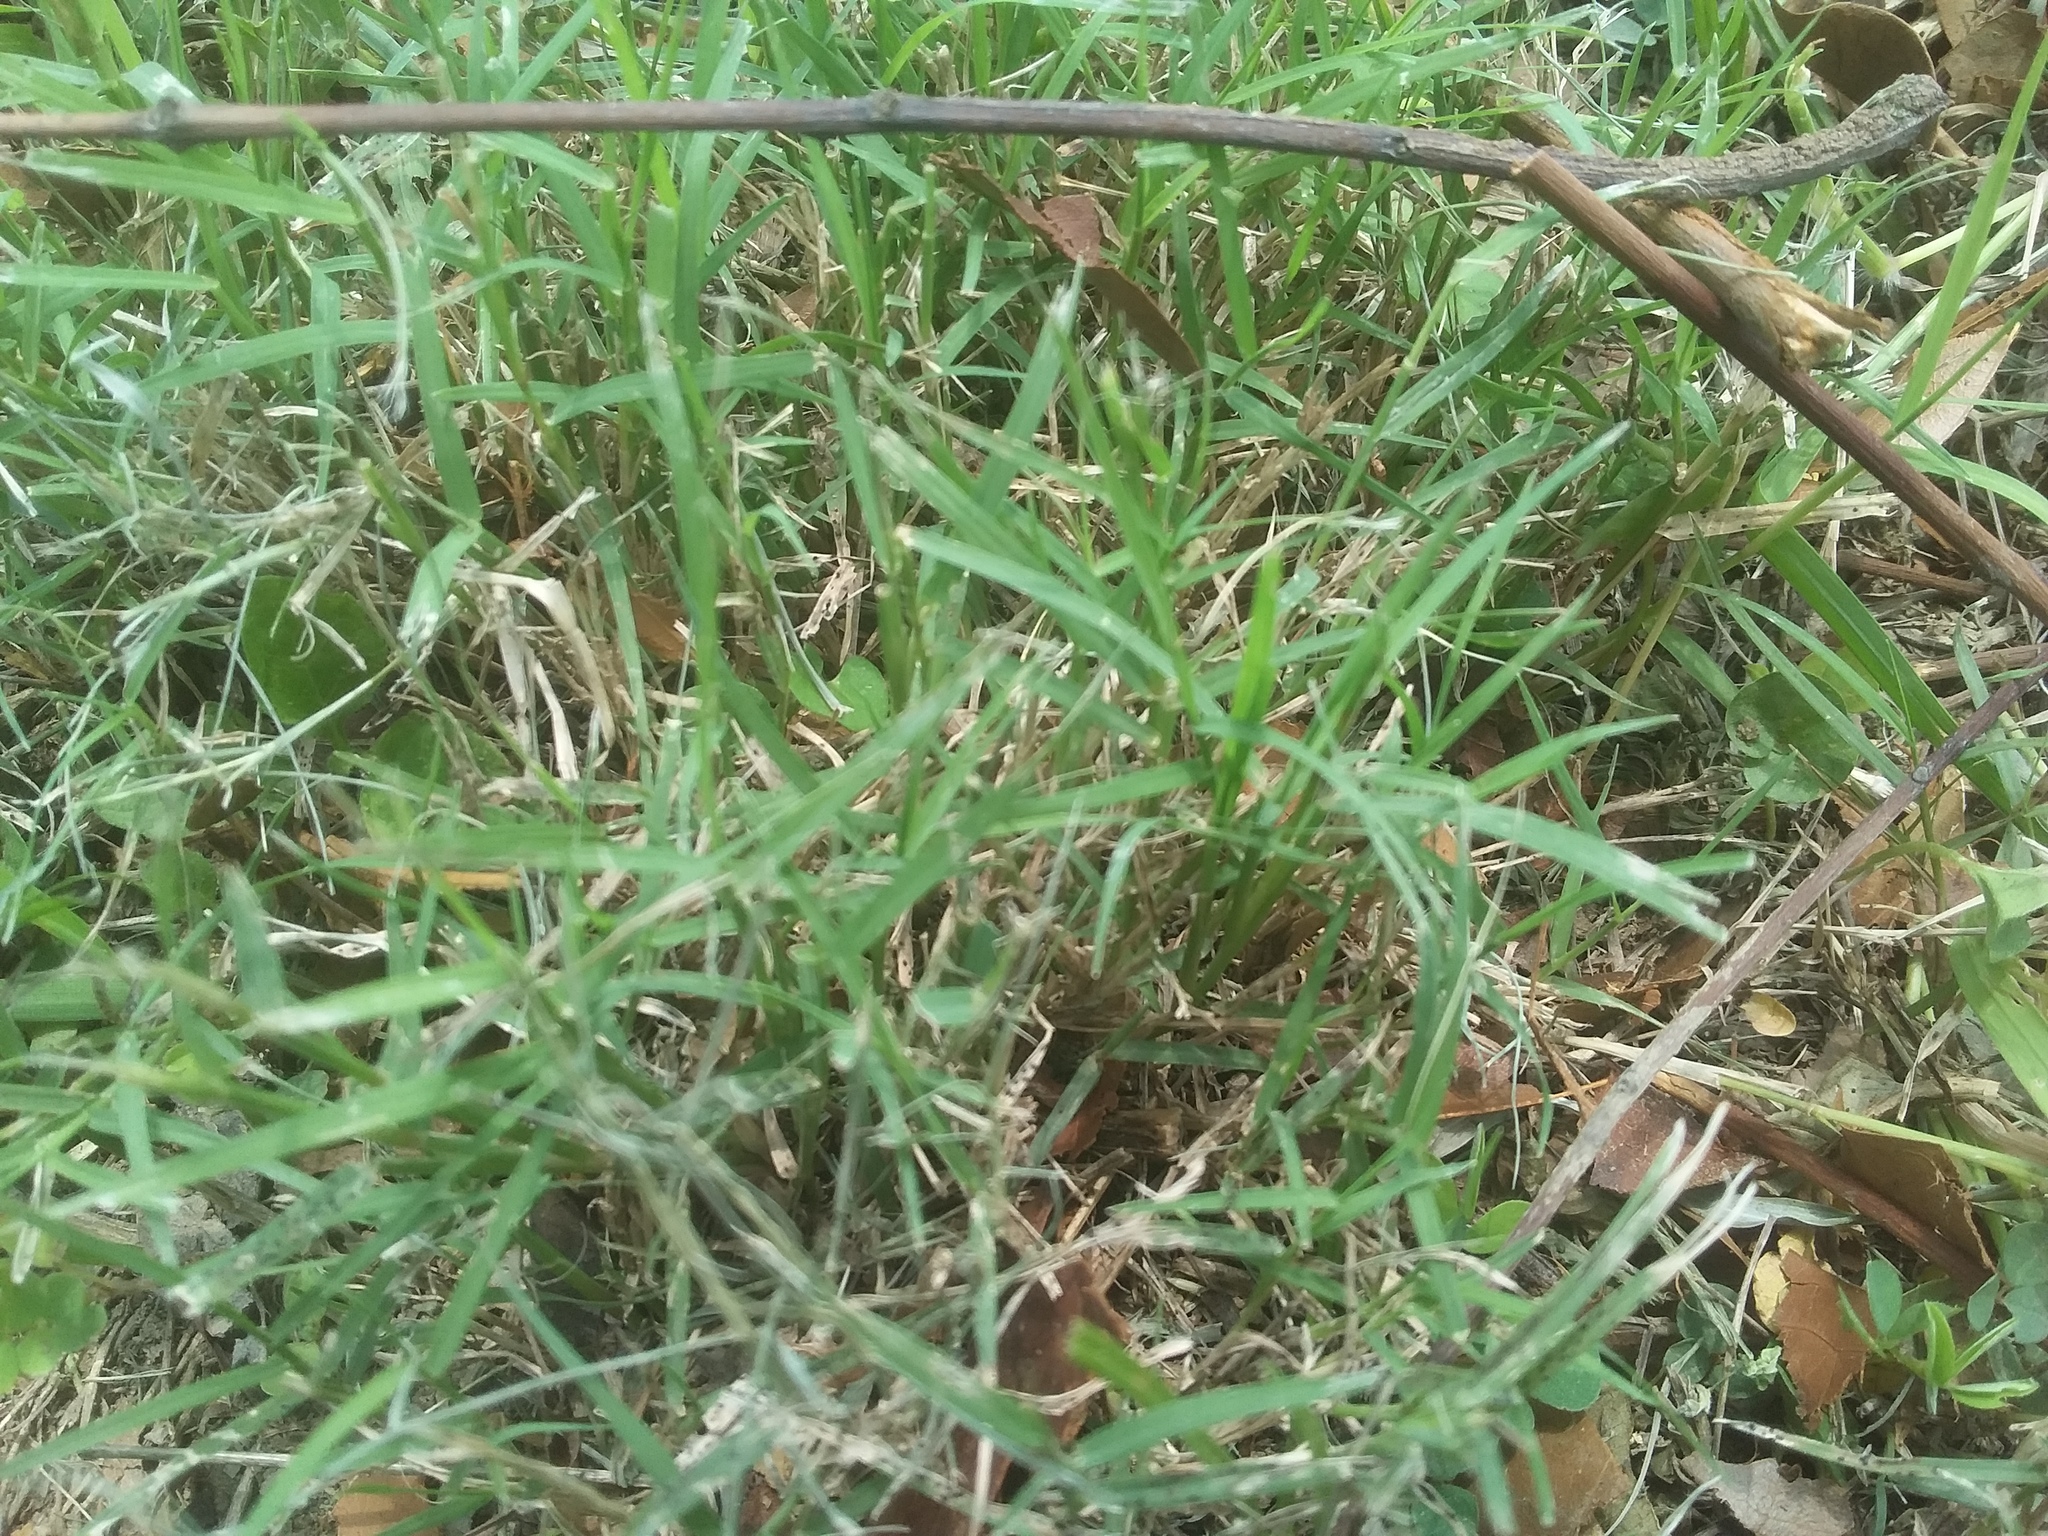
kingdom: Plantae
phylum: Tracheophyta
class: Liliopsida
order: Poales
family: Poaceae
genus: Megathyrsus
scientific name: Megathyrsus maximus
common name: Guineagrass
